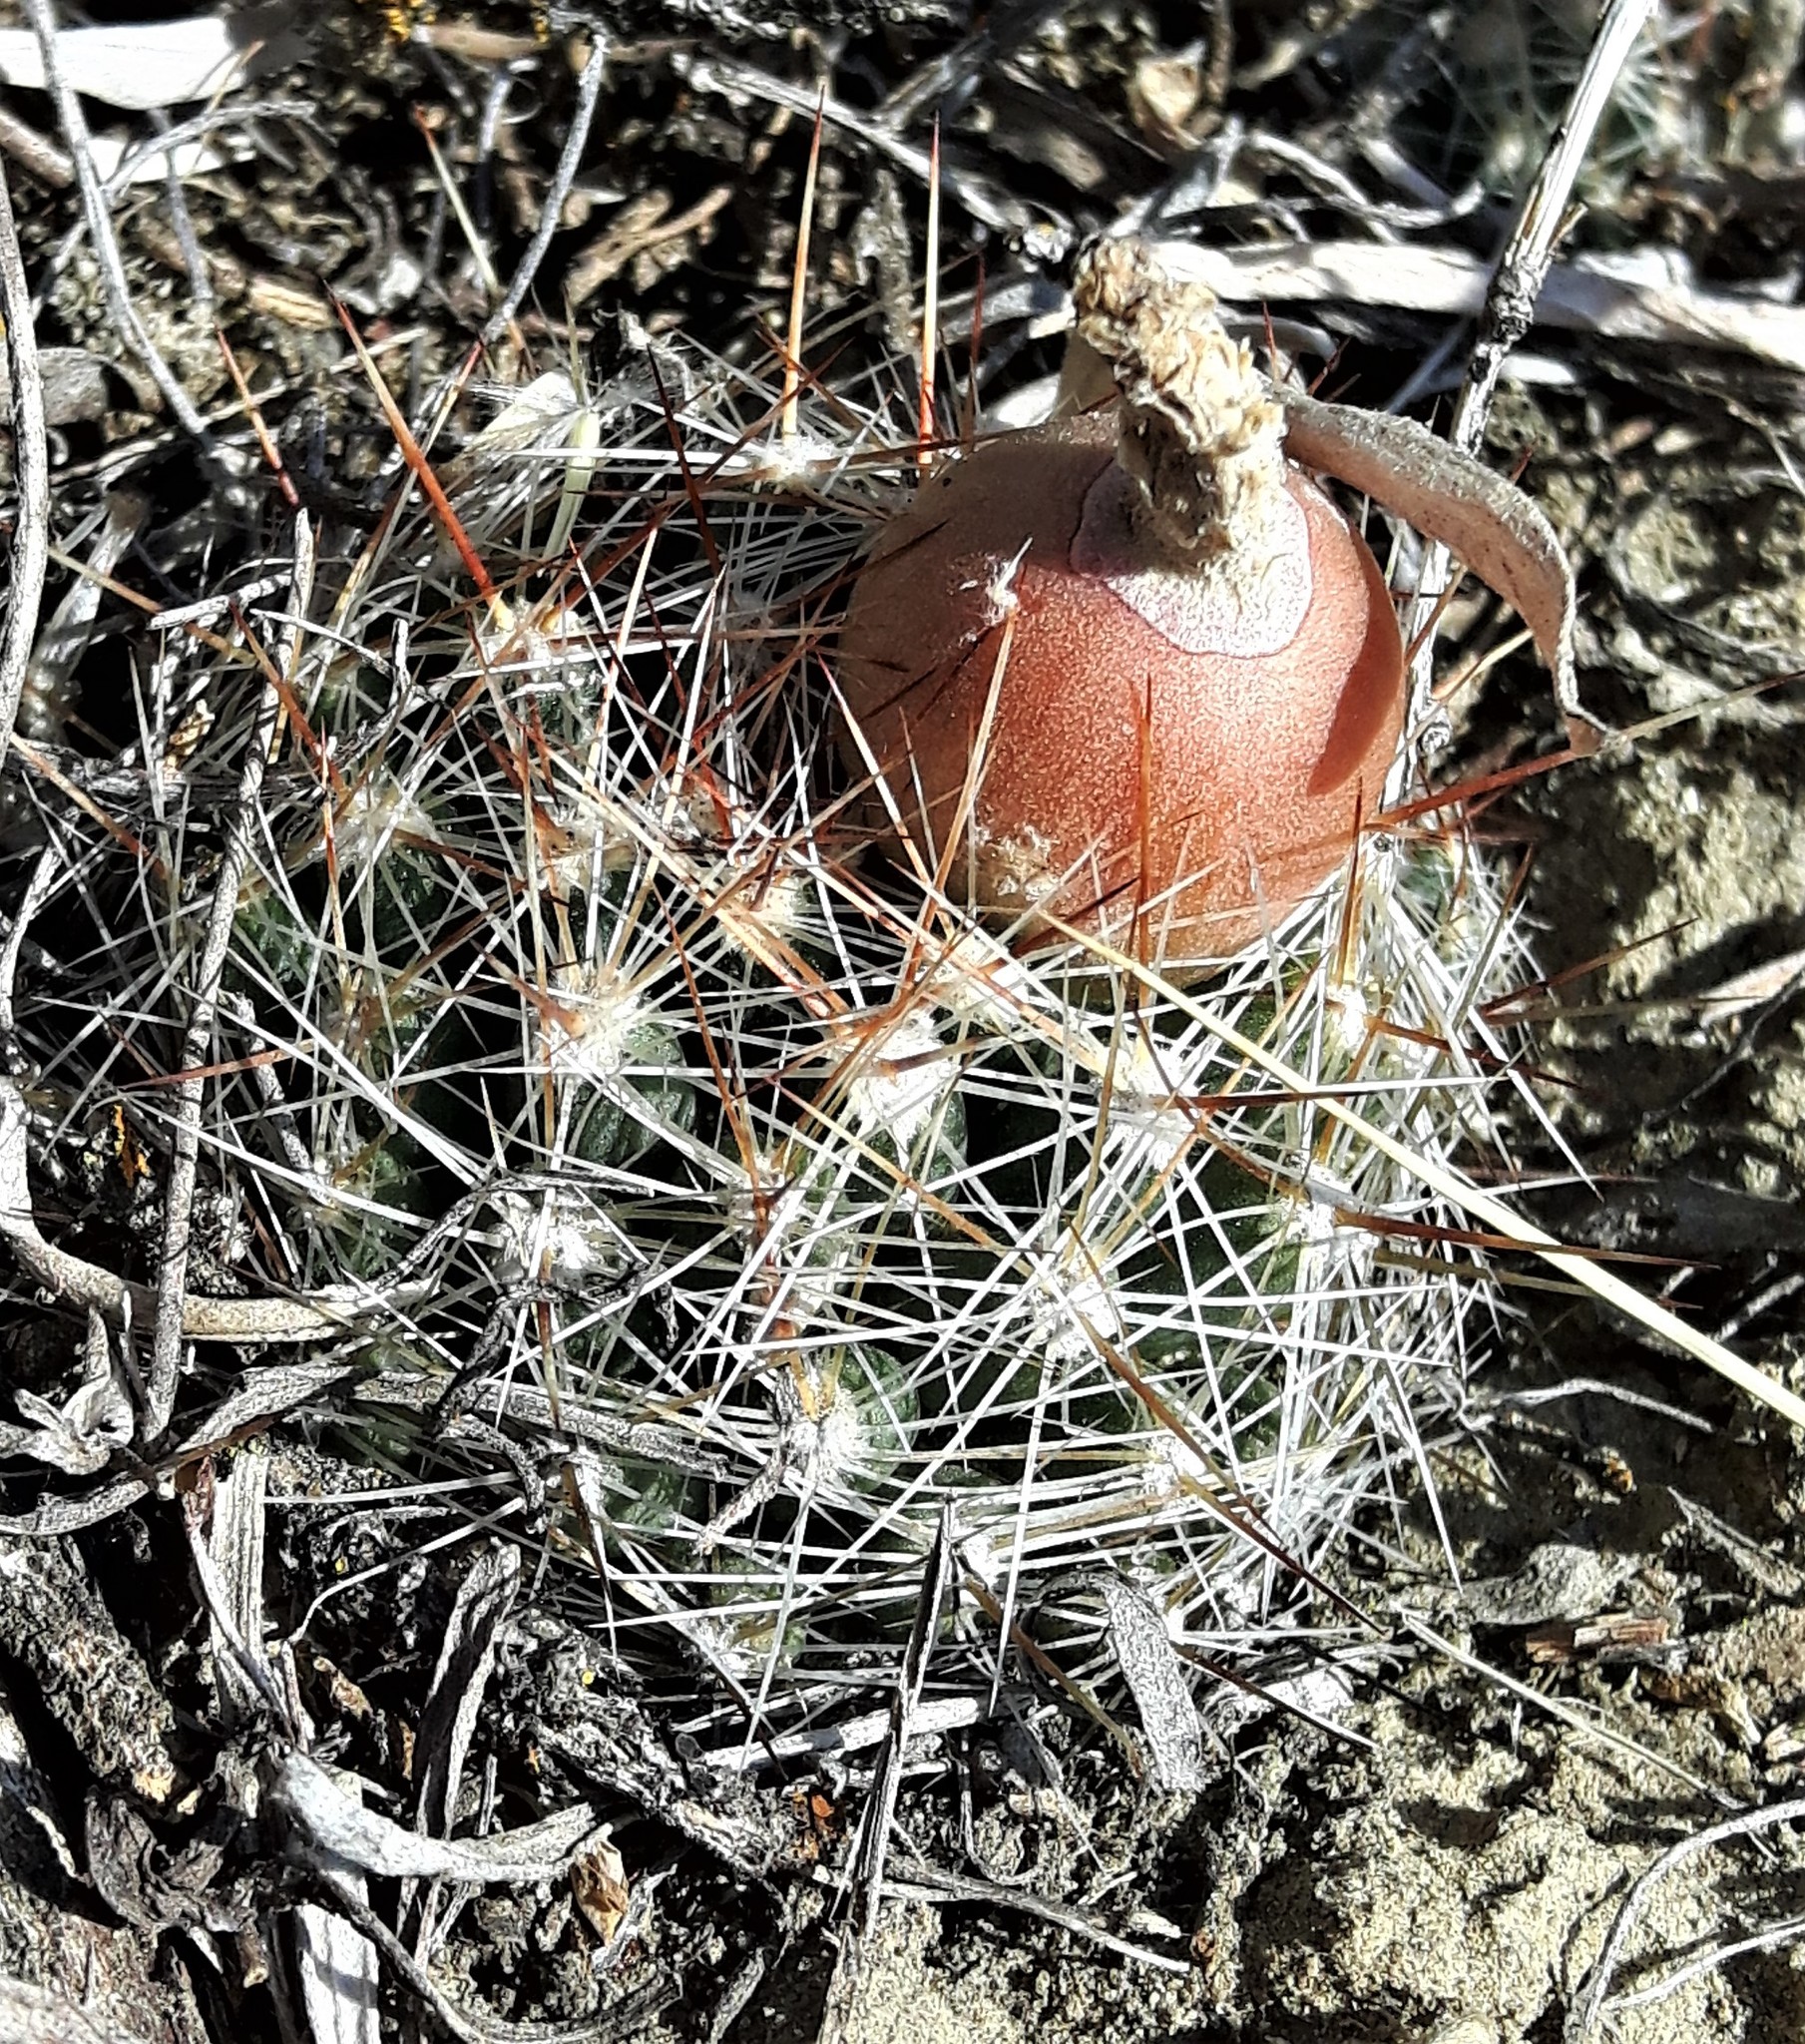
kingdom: Plantae
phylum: Tracheophyta
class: Magnoliopsida
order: Caryophyllales
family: Cactaceae
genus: Pelecyphora
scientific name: Pelecyphora vivipara
